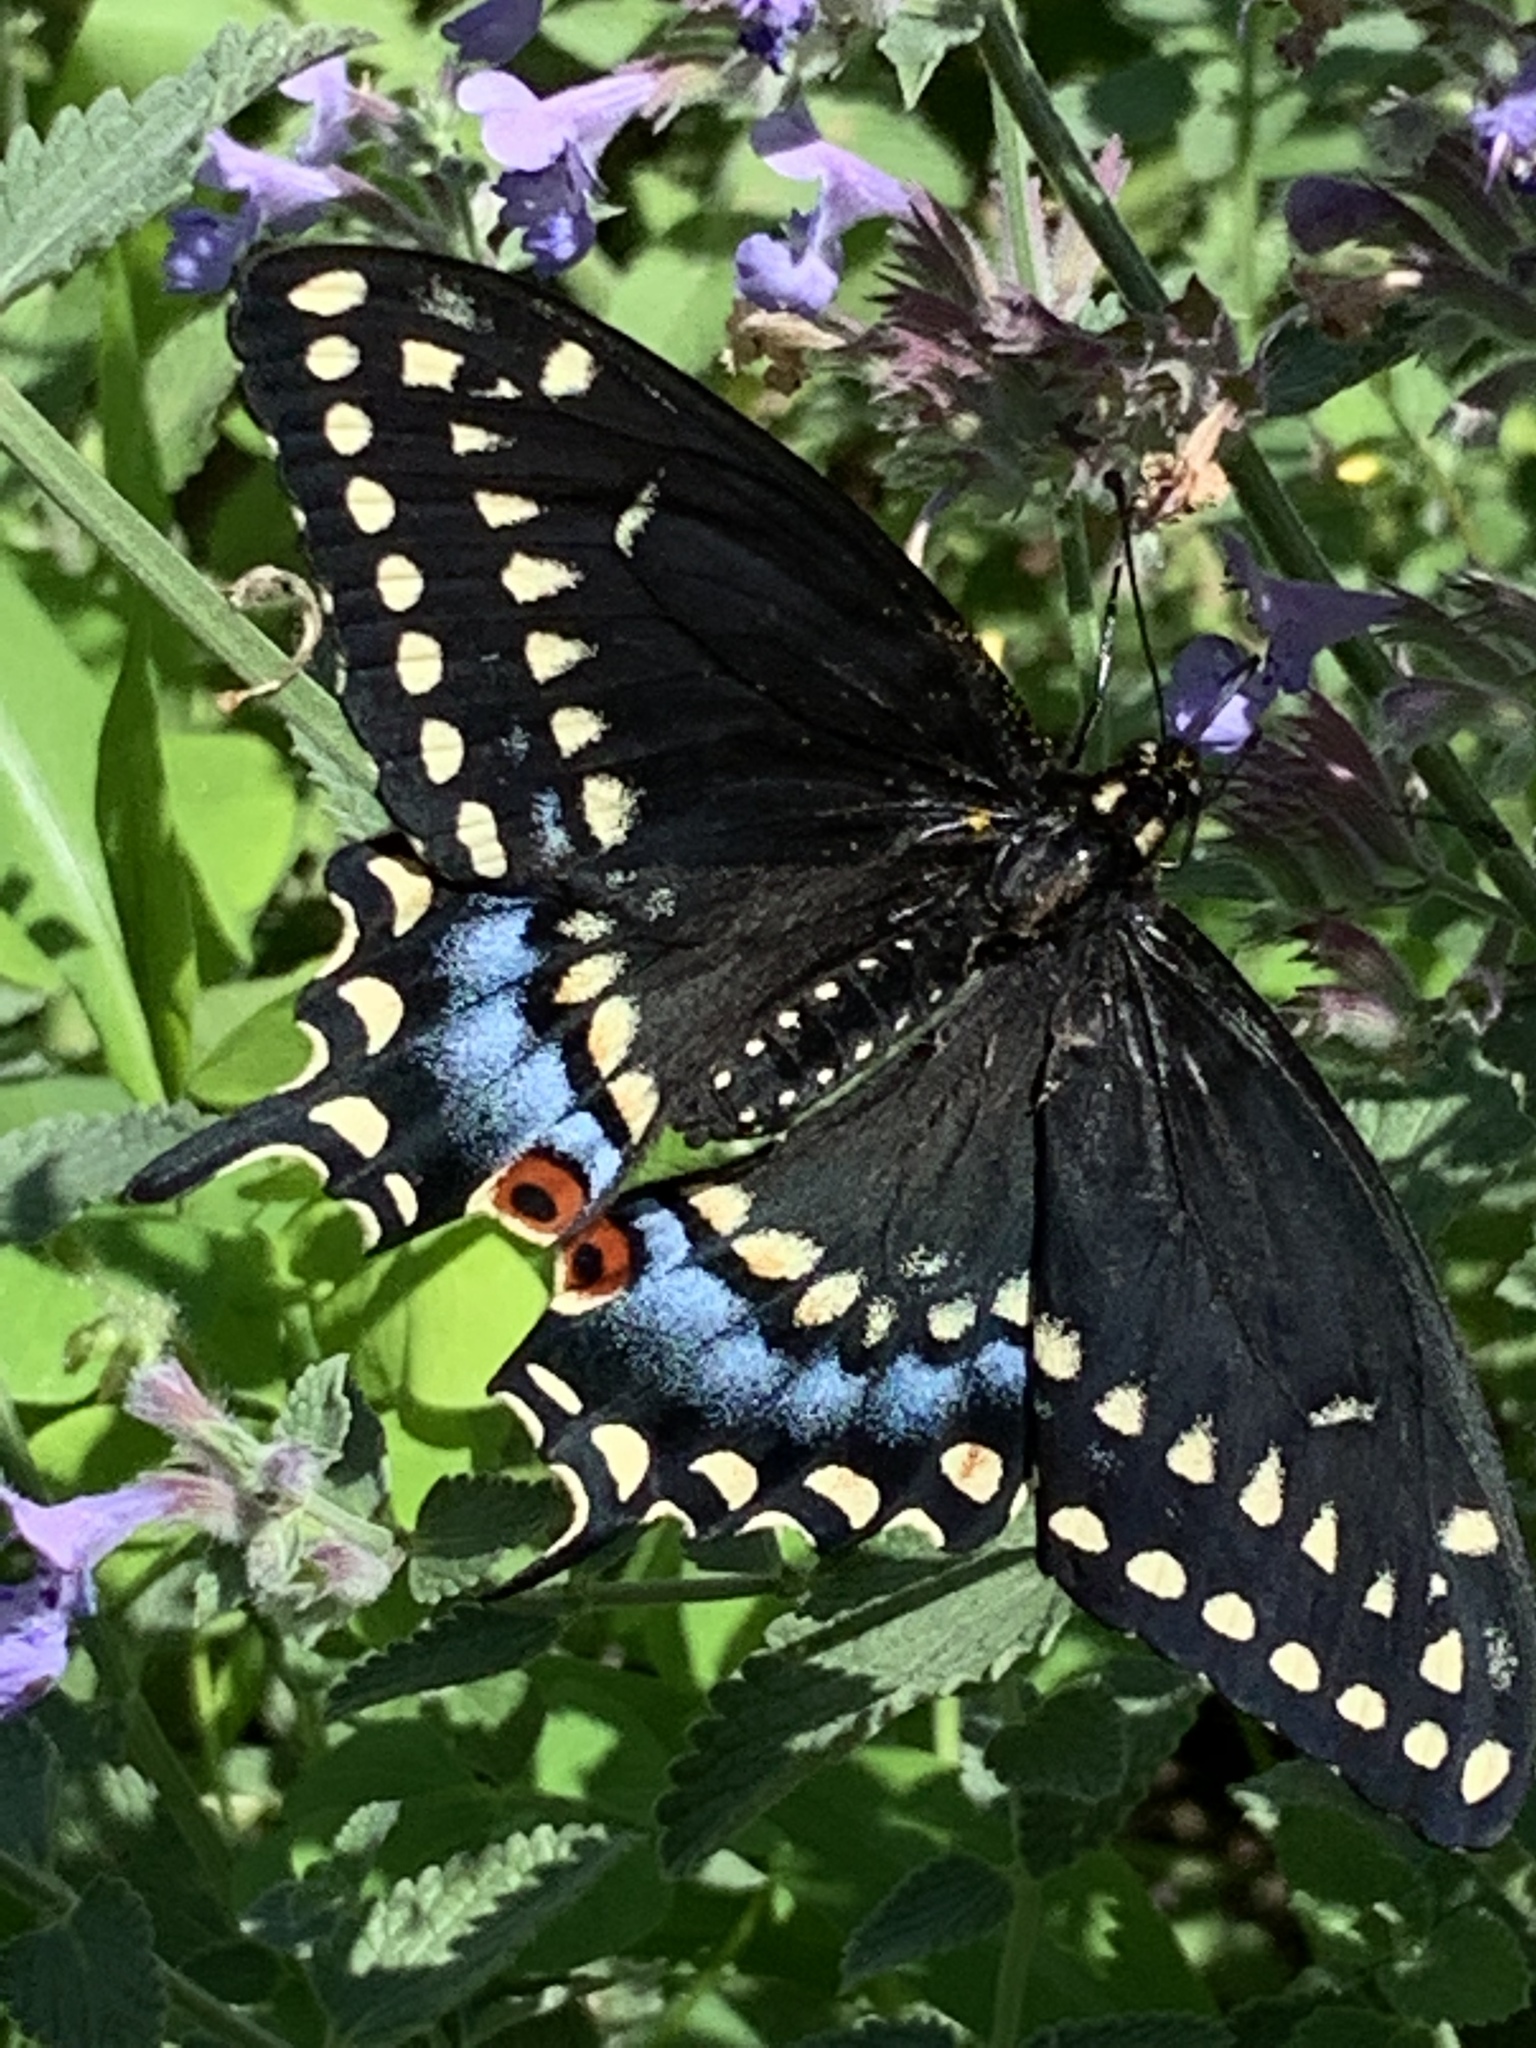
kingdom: Animalia
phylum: Arthropoda
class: Insecta
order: Lepidoptera
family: Papilionidae
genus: Papilio
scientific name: Papilio polyxenes
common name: Black swallowtail
